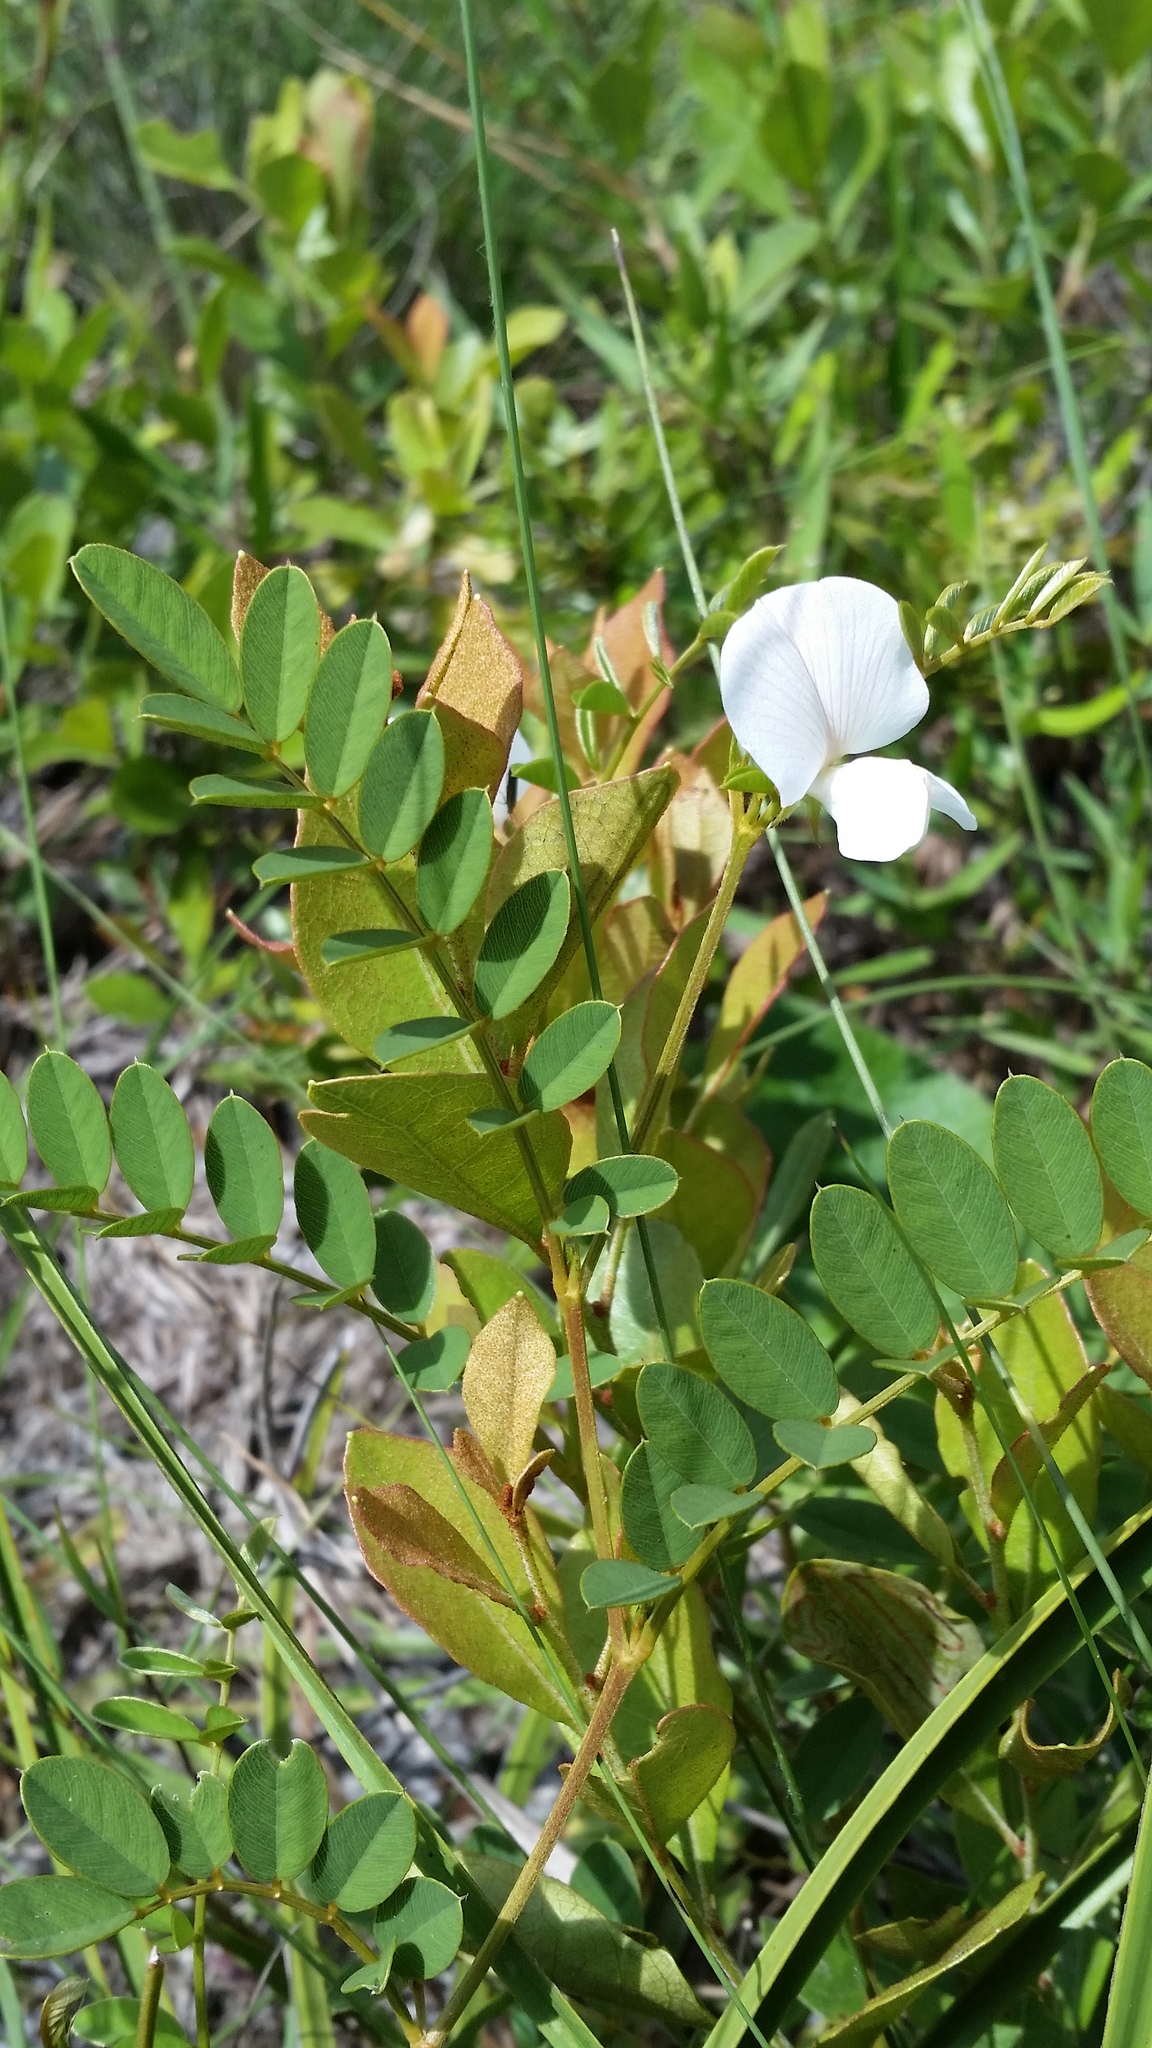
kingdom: Plantae
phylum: Tracheophyta
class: Magnoliopsida
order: Fabales
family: Fabaceae
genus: Tephrosia
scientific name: Tephrosia rugelii
